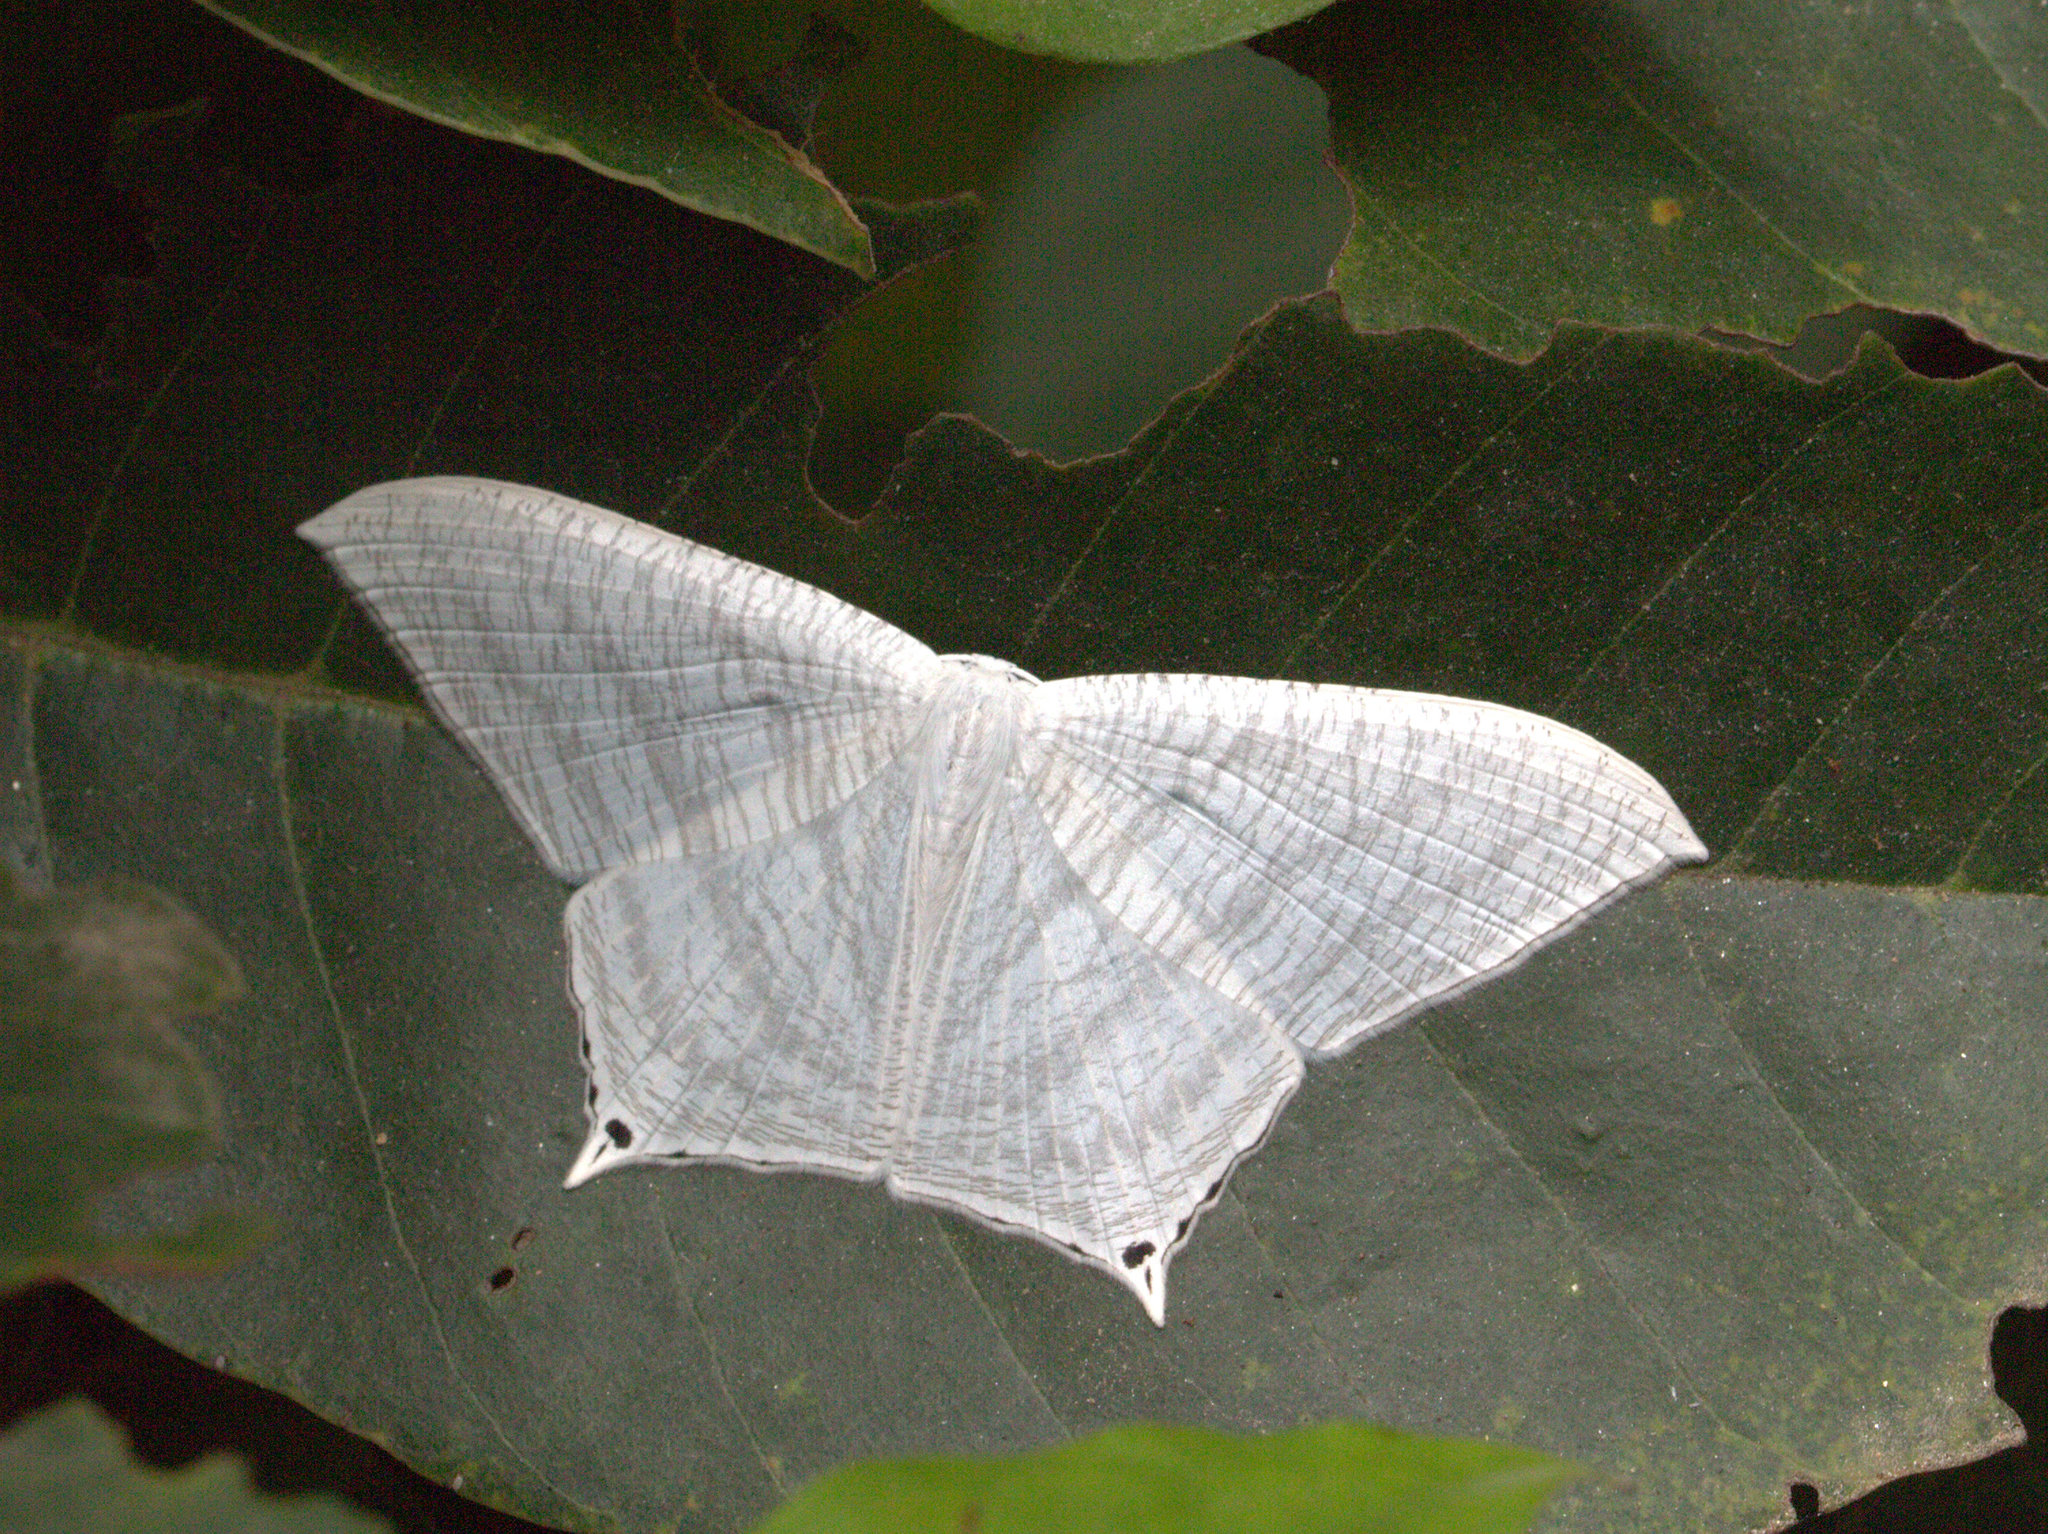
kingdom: Animalia
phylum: Arthropoda
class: Insecta
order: Lepidoptera
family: Uraniidae
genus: Micronia
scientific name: Micronia aculeata
